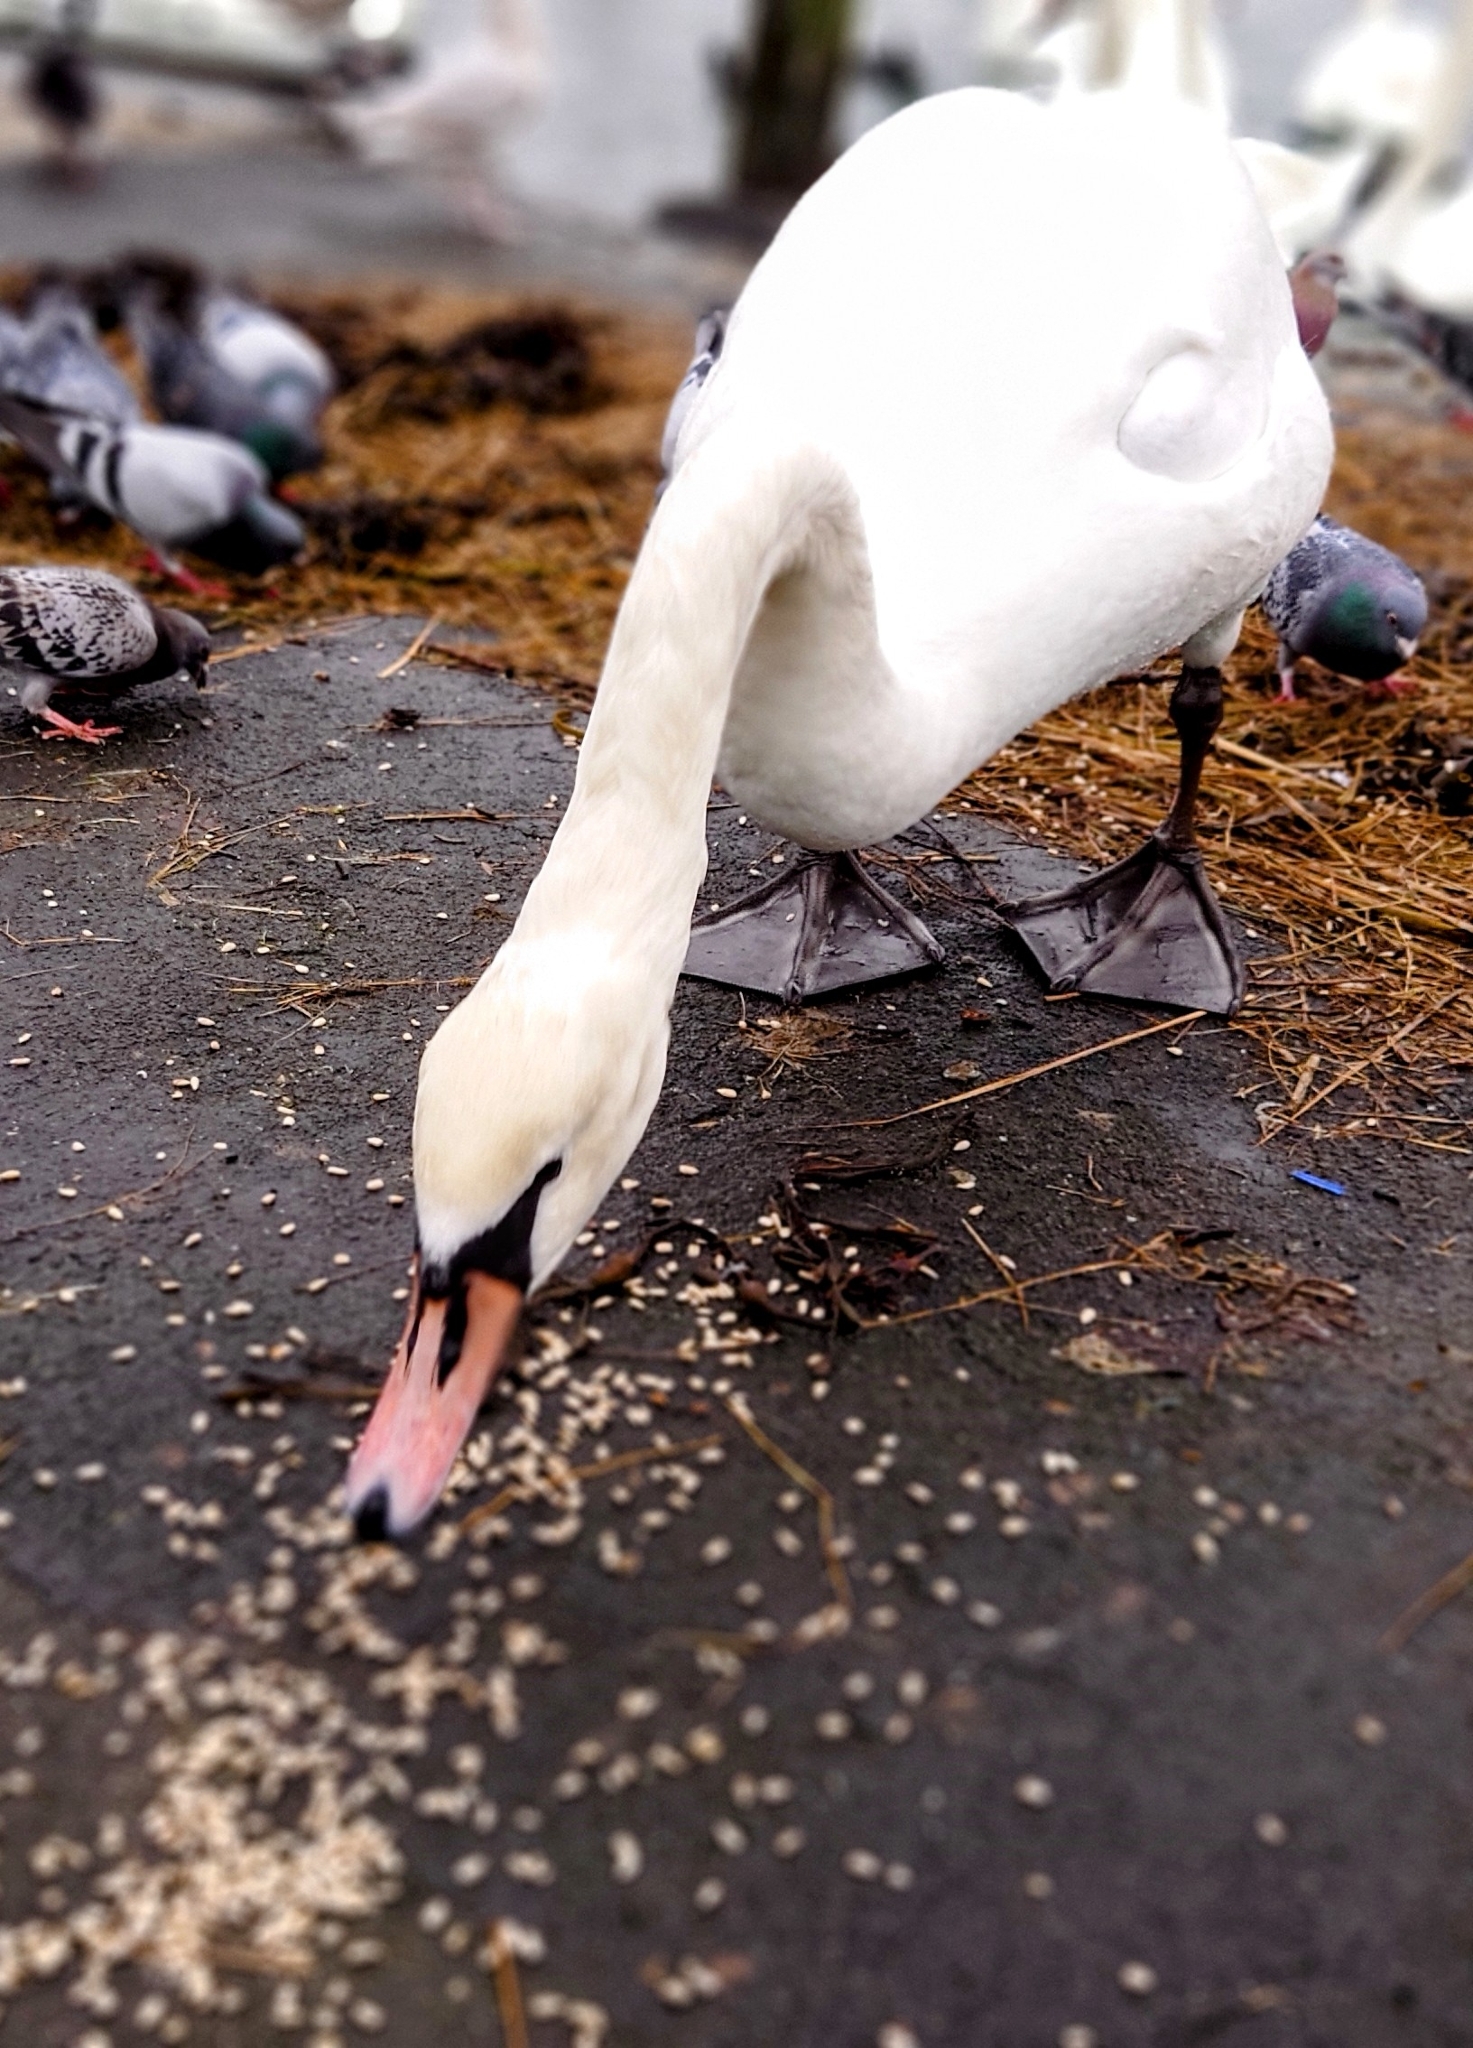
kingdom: Animalia
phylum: Chordata
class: Aves
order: Anseriformes
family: Anatidae
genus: Cygnus
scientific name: Cygnus olor
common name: Mute swan
